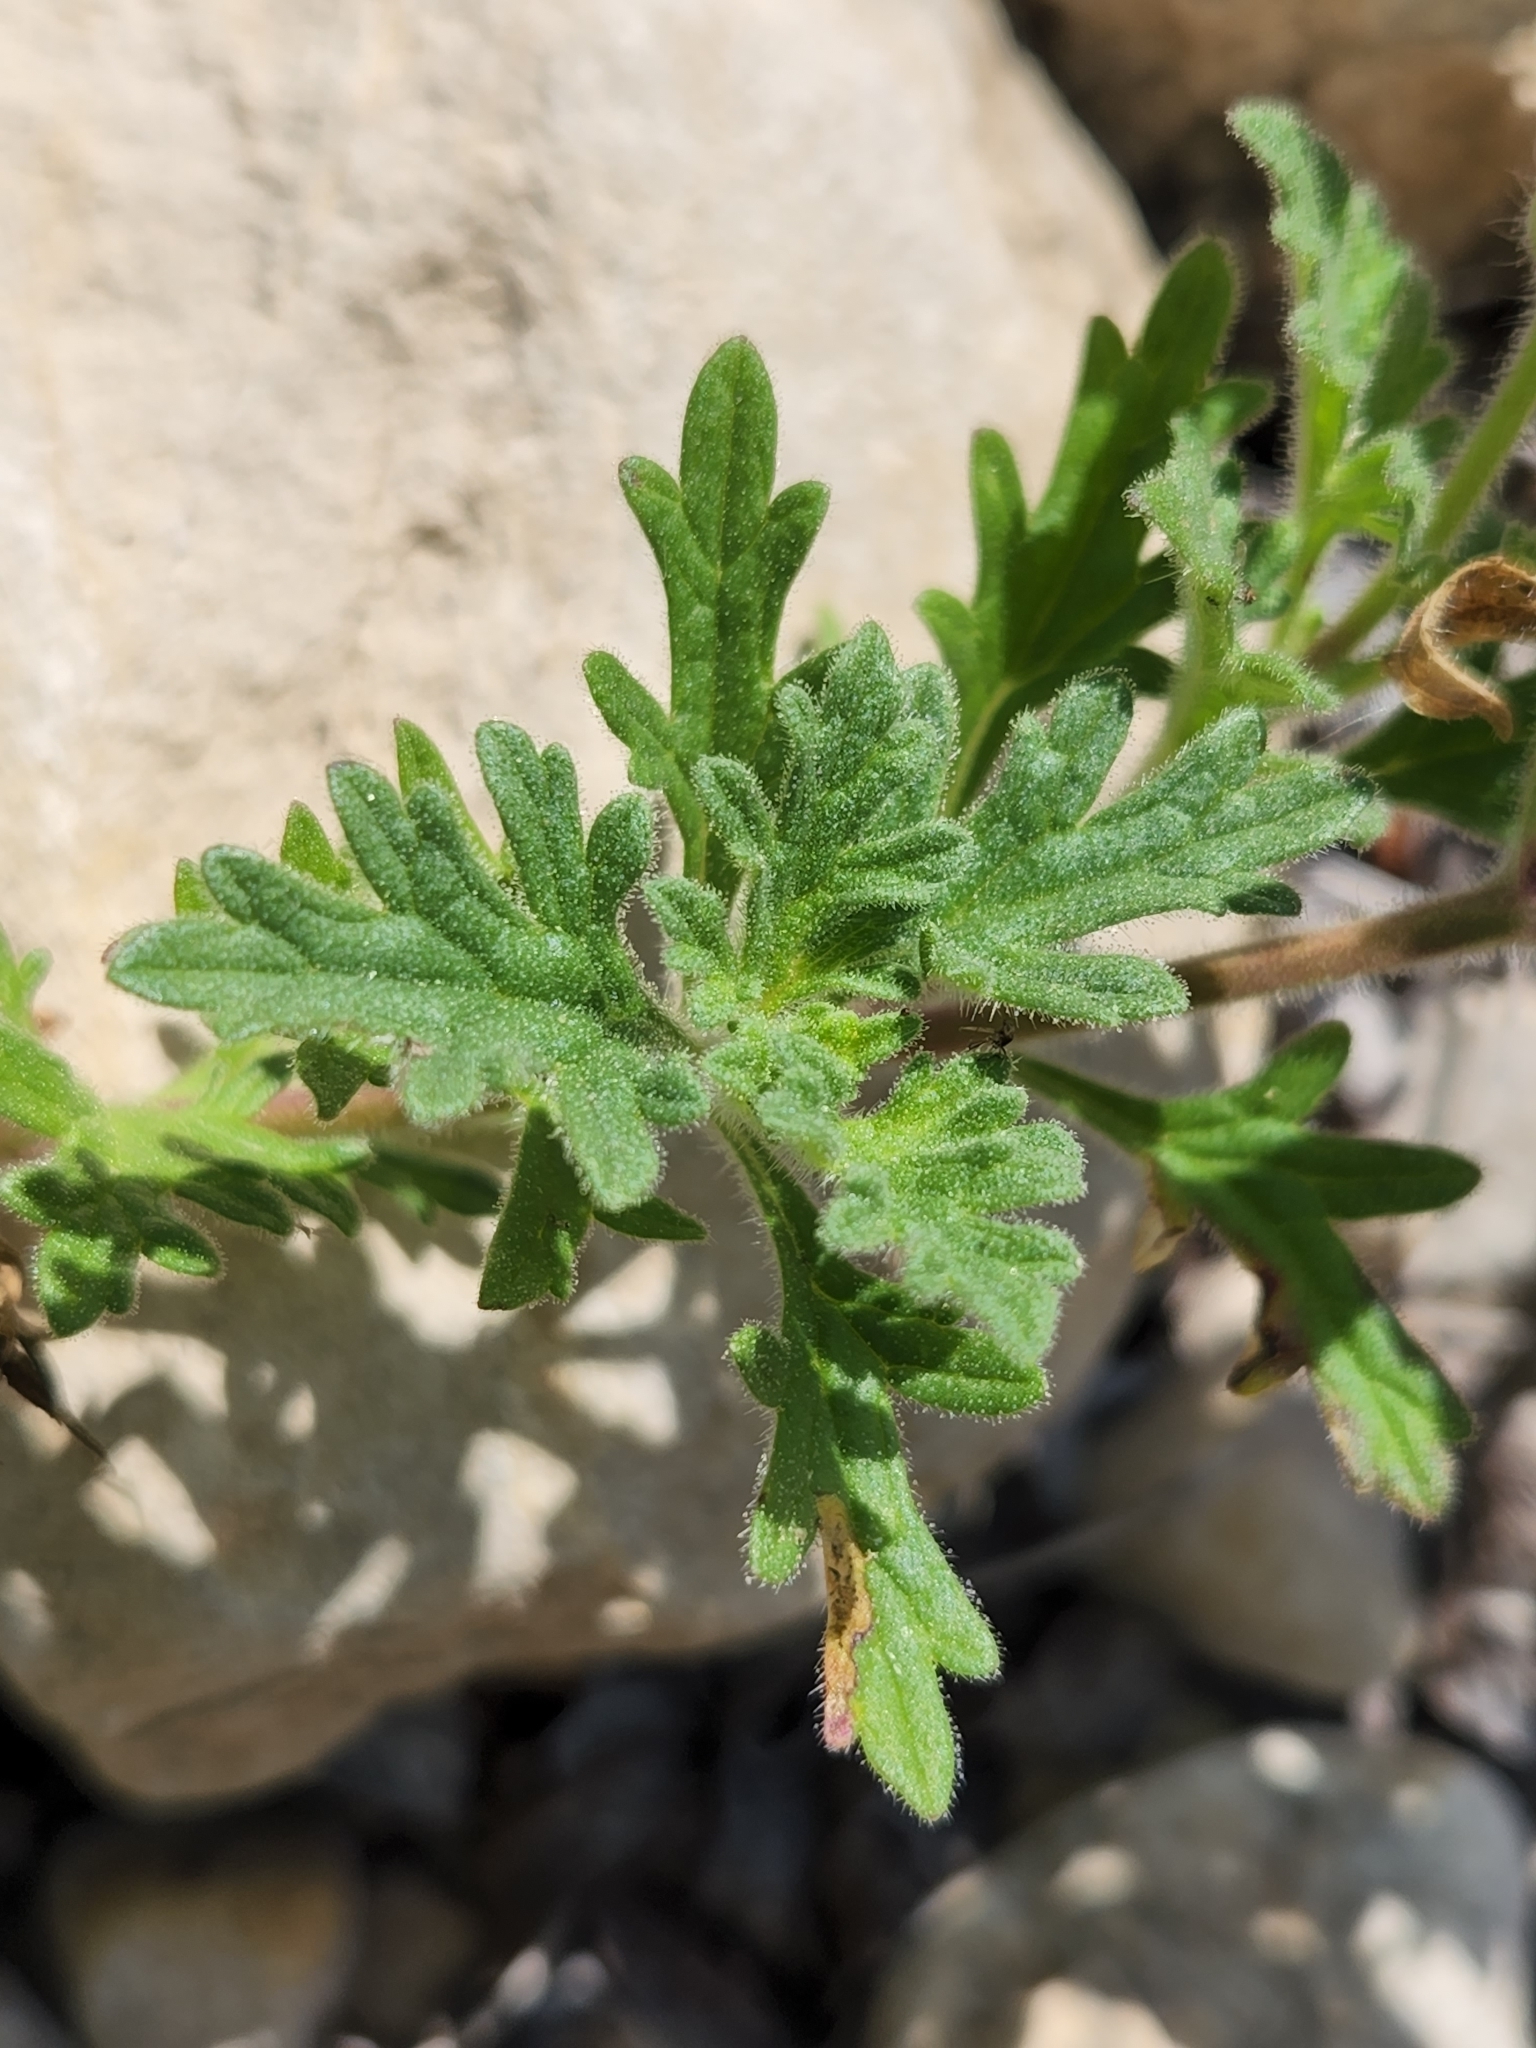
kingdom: Plantae
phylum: Tracheophyta
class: Magnoliopsida
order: Lamiales
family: Verbenaceae
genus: Verbena
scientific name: Verbena tumidula
